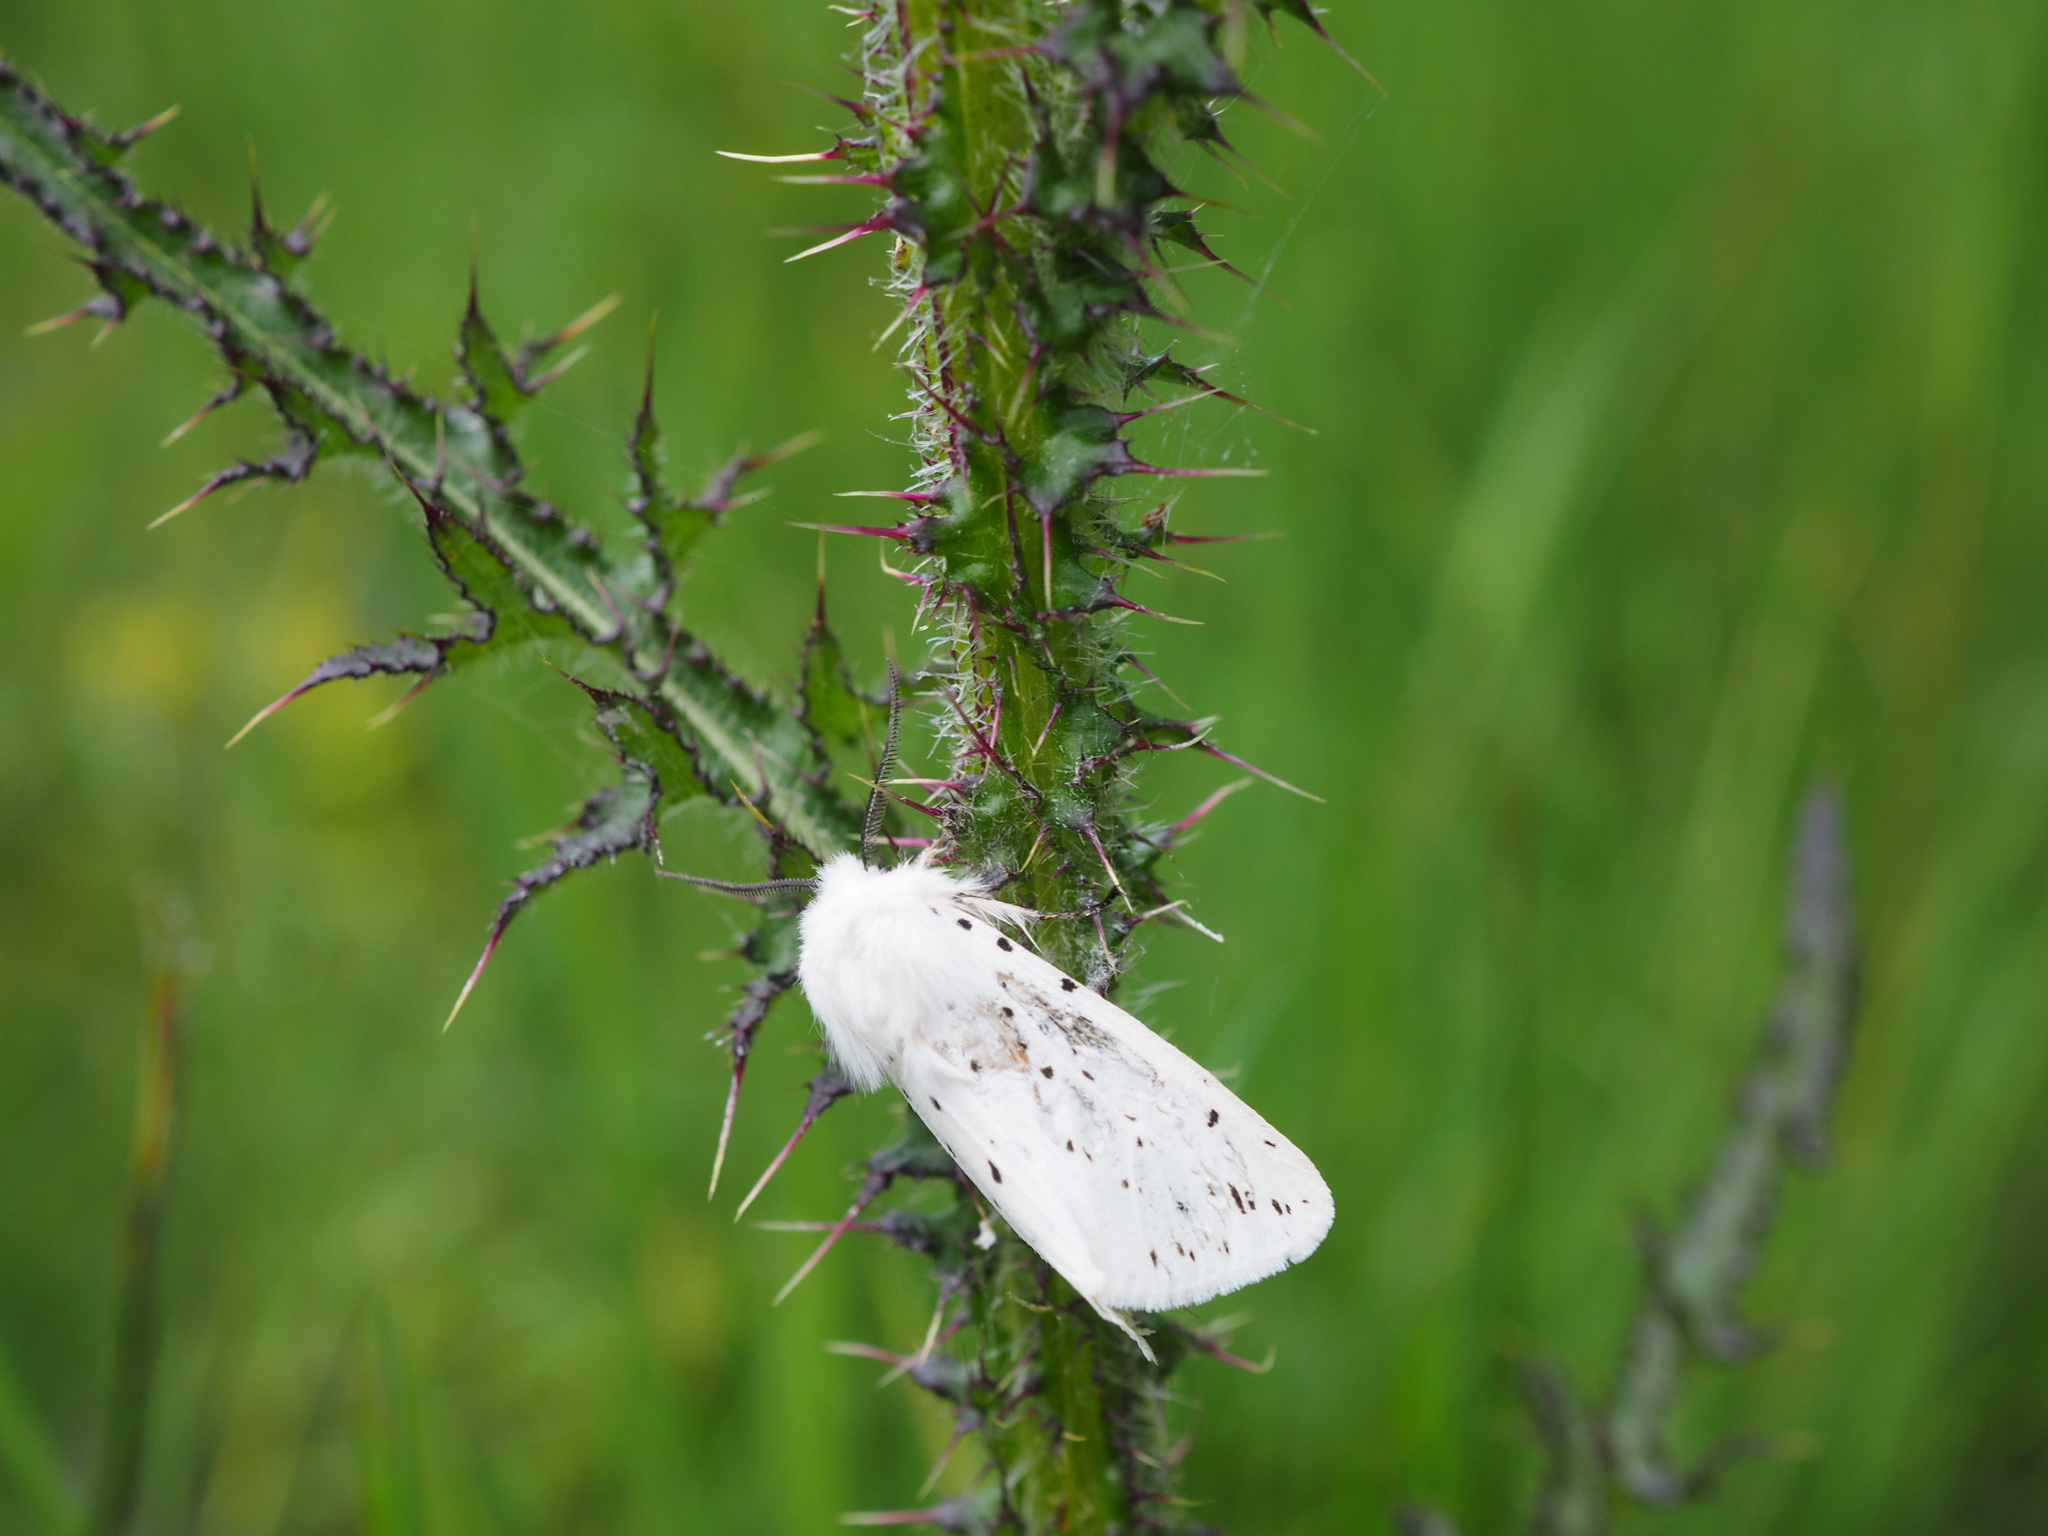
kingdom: Animalia
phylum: Arthropoda
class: Insecta
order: Lepidoptera
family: Erebidae
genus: Spilosoma
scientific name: Spilosoma lubricipeda
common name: White ermine
